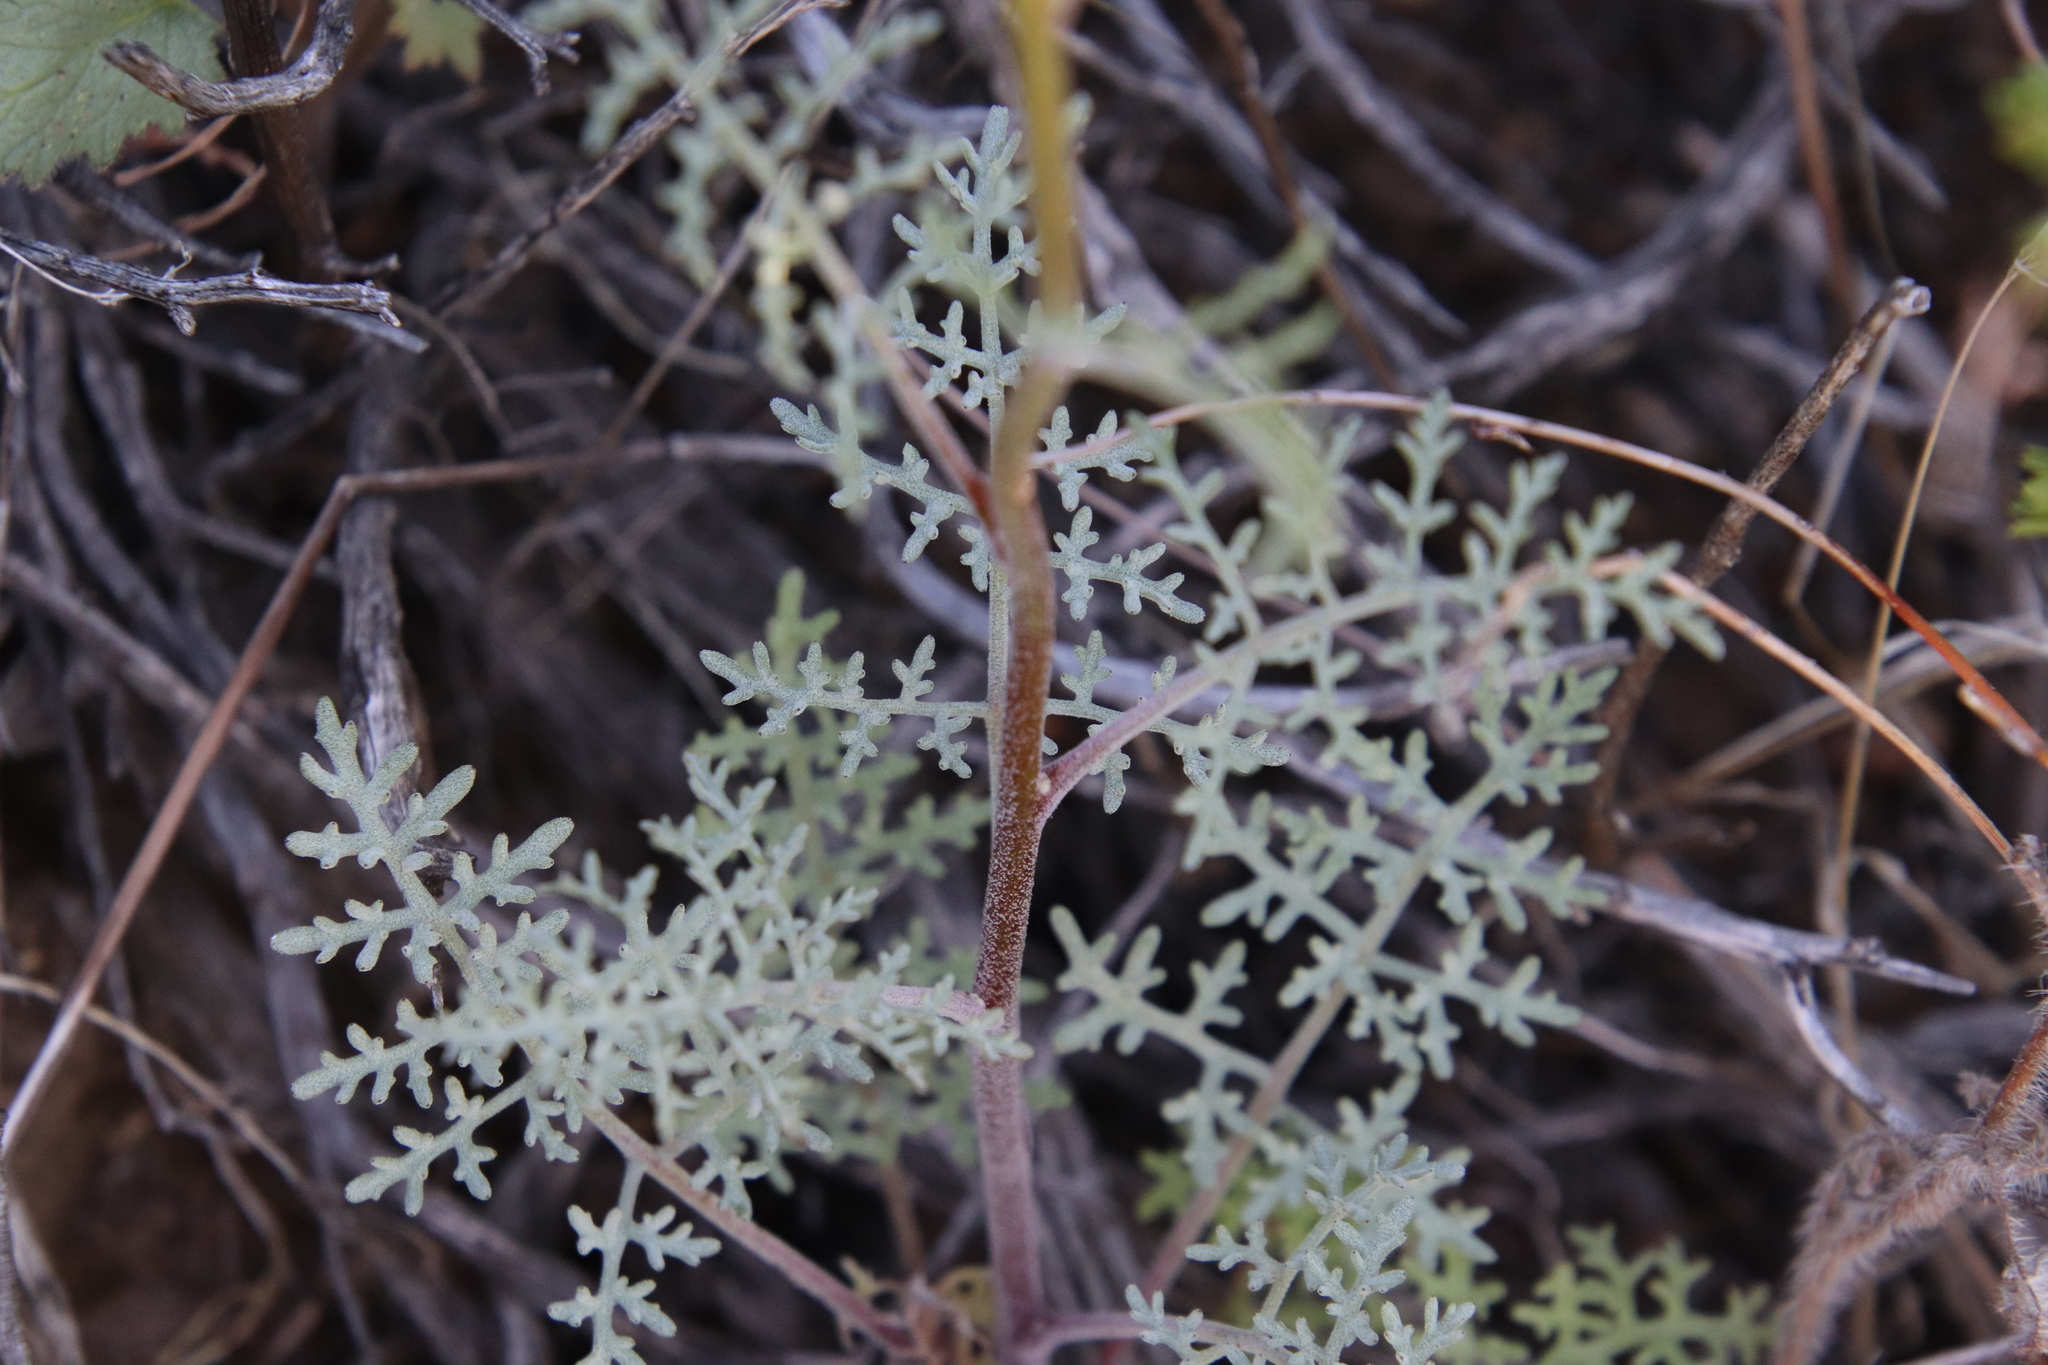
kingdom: Plantae
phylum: Tracheophyta
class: Magnoliopsida
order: Asterales
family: Asteraceae
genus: Chaenactis
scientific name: Chaenactis artemisiifolia
